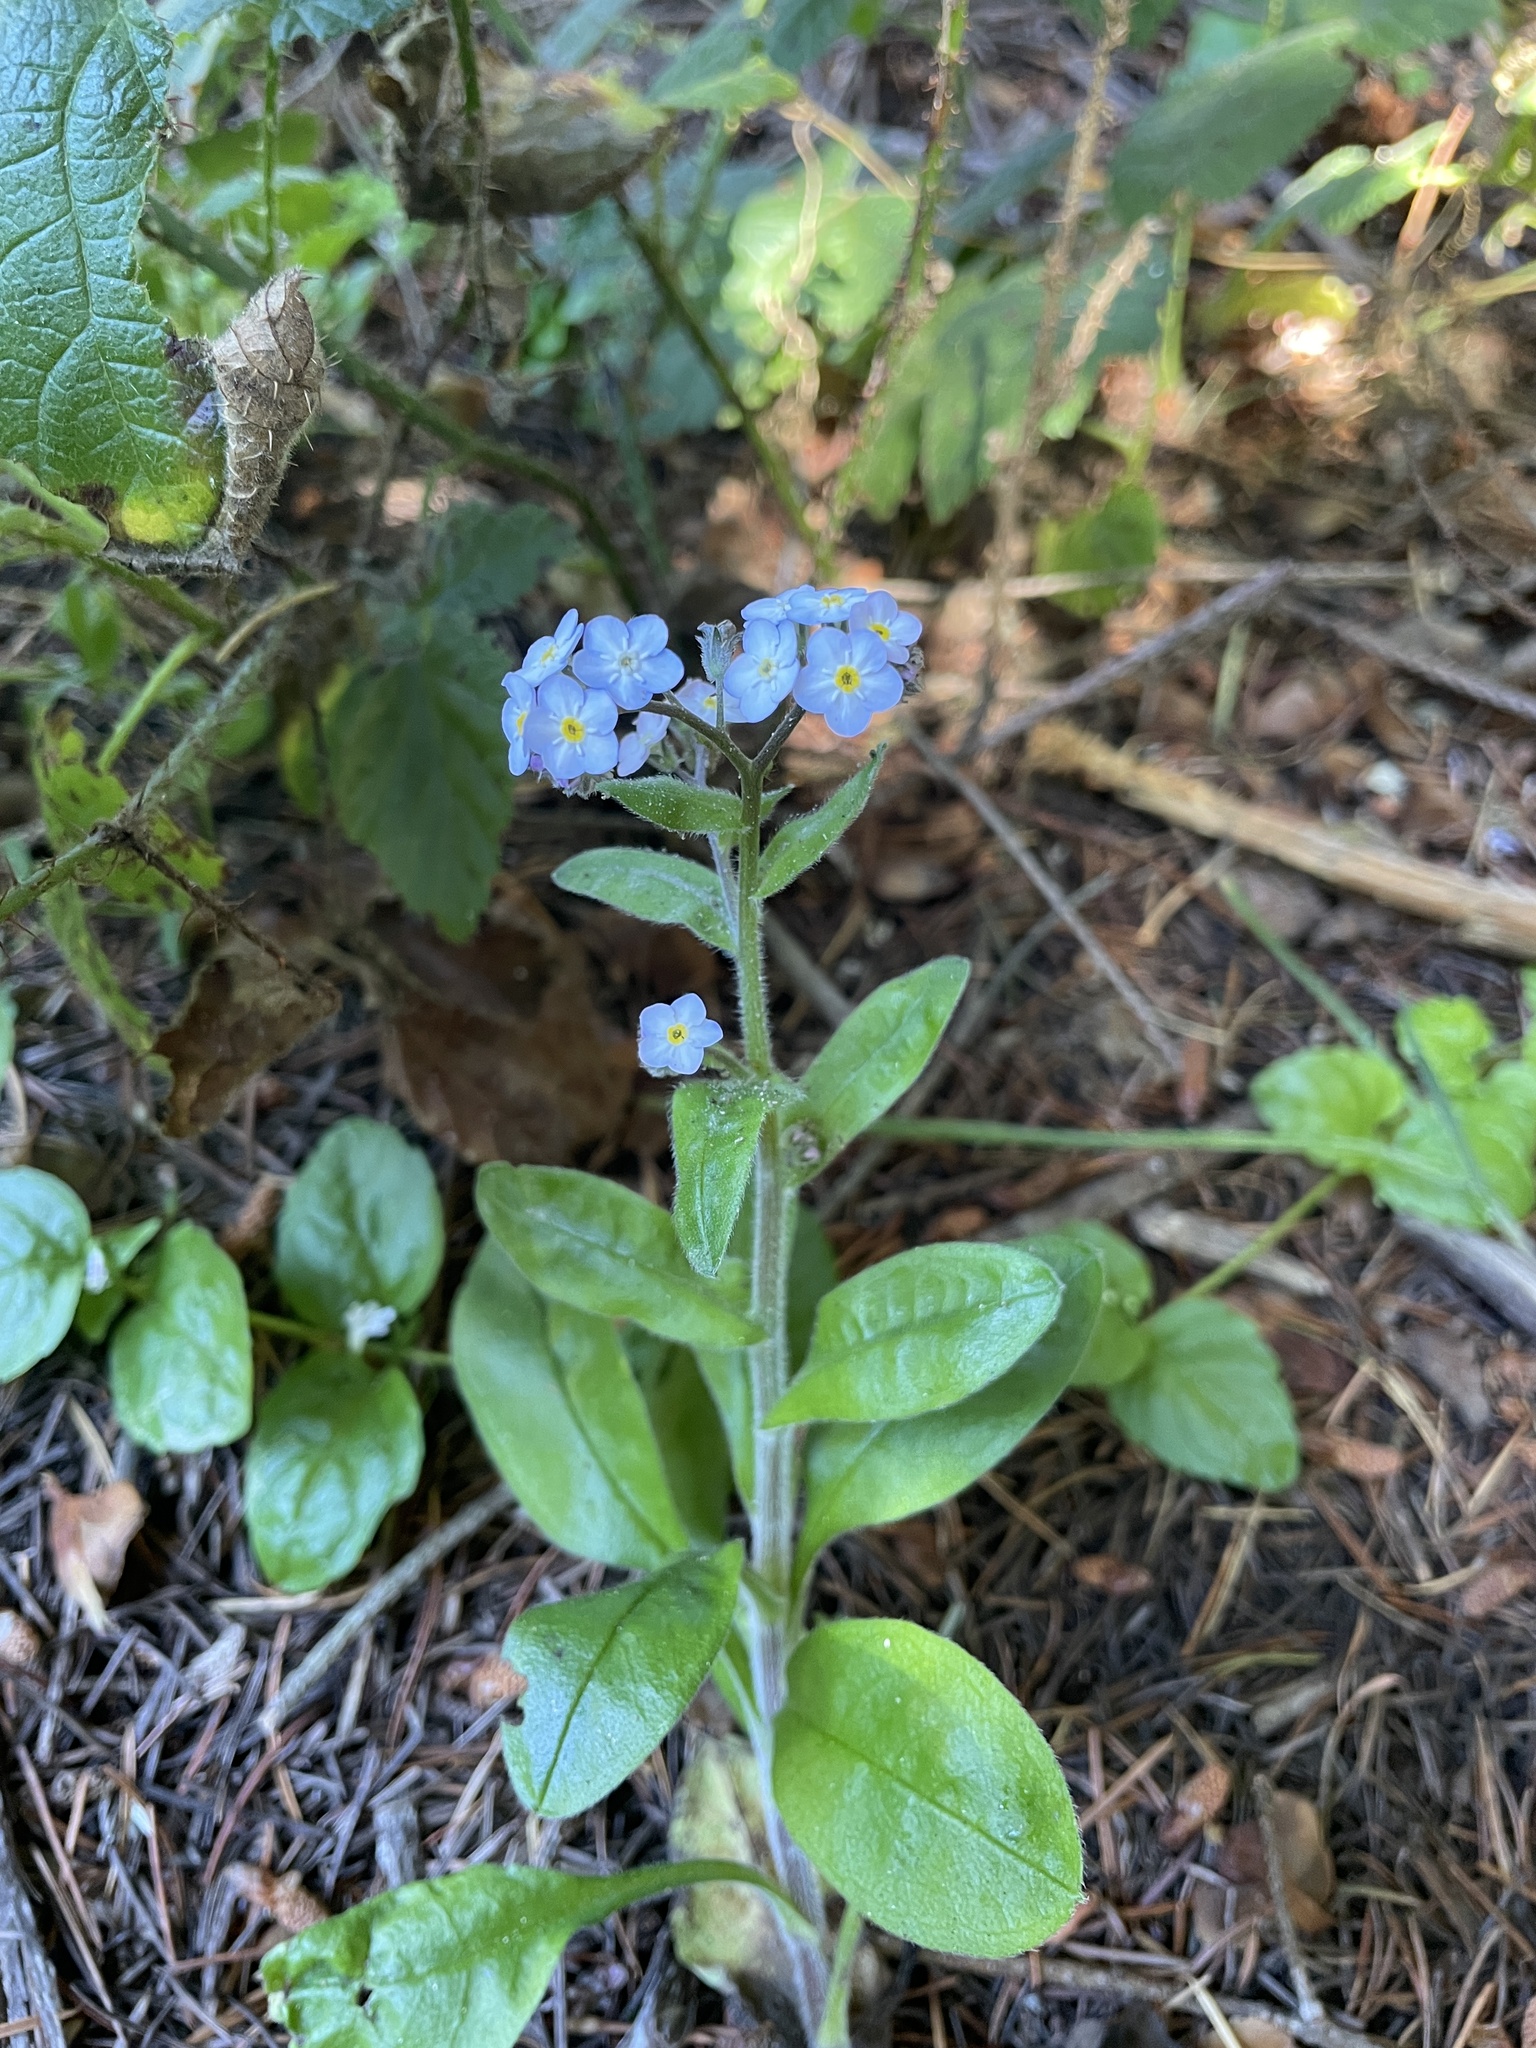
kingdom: Plantae
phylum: Tracheophyta
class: Magnoliopsida
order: Boraginales
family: Boraginaceae
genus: Myosotis
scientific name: Myosotis latifolia
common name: Broadleaf forget-me-not
